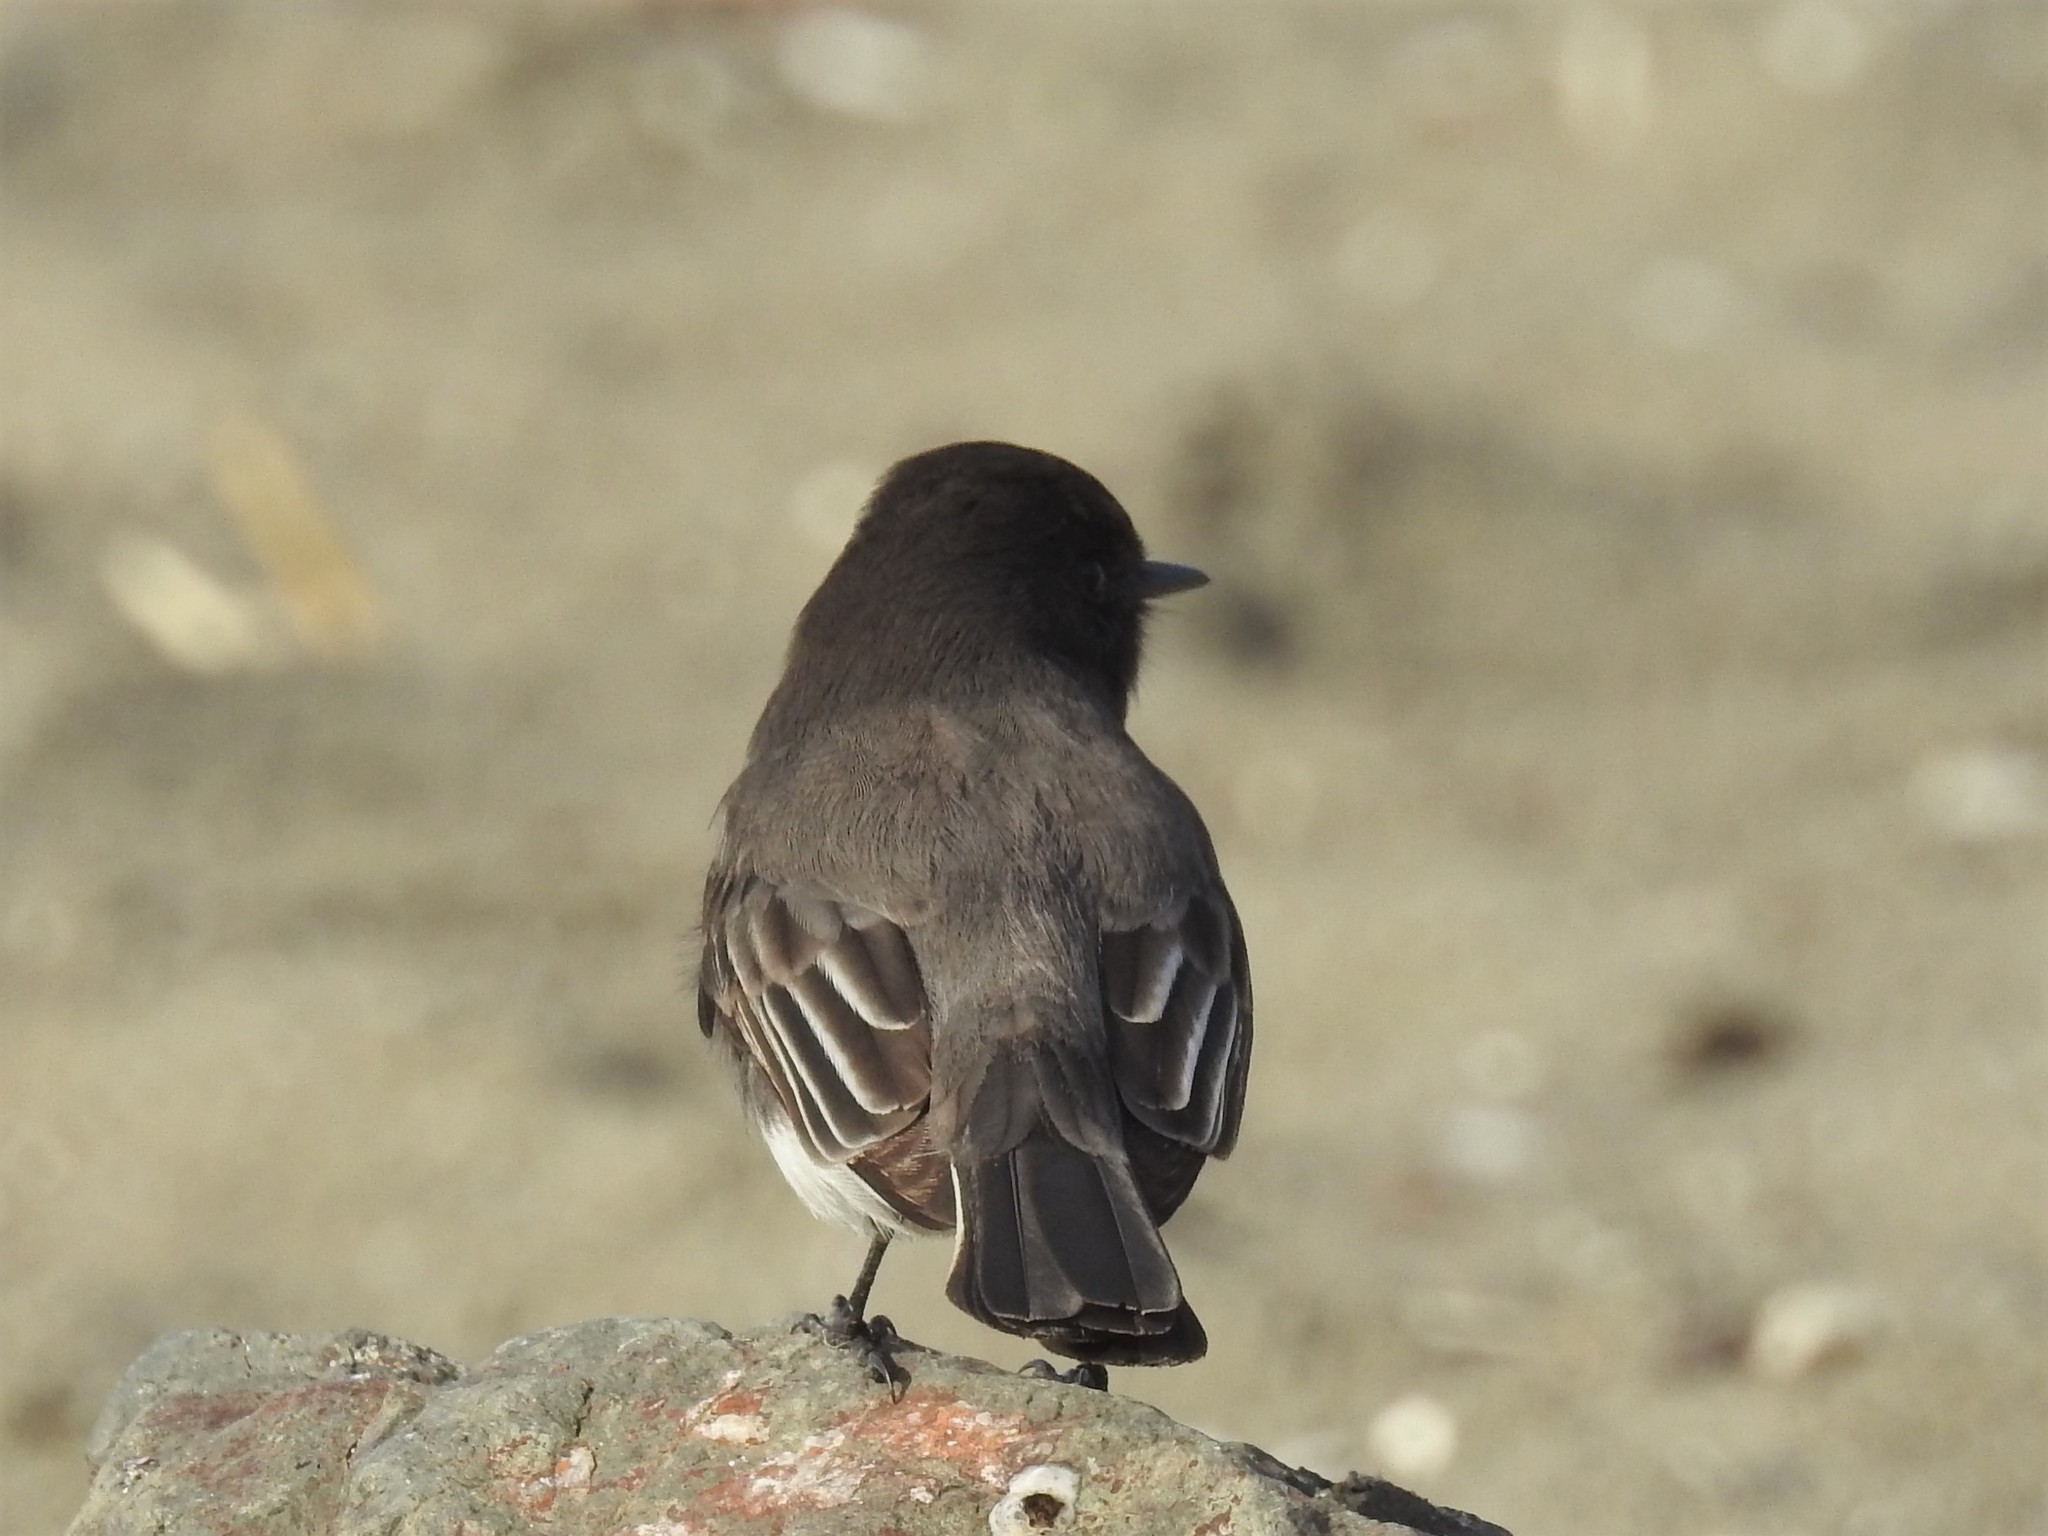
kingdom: Animalia
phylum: Chordata
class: Aves
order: Passeriformes
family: Tyrannidae
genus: Sayornis
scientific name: Sayornis nigricans
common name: Black phoebe
